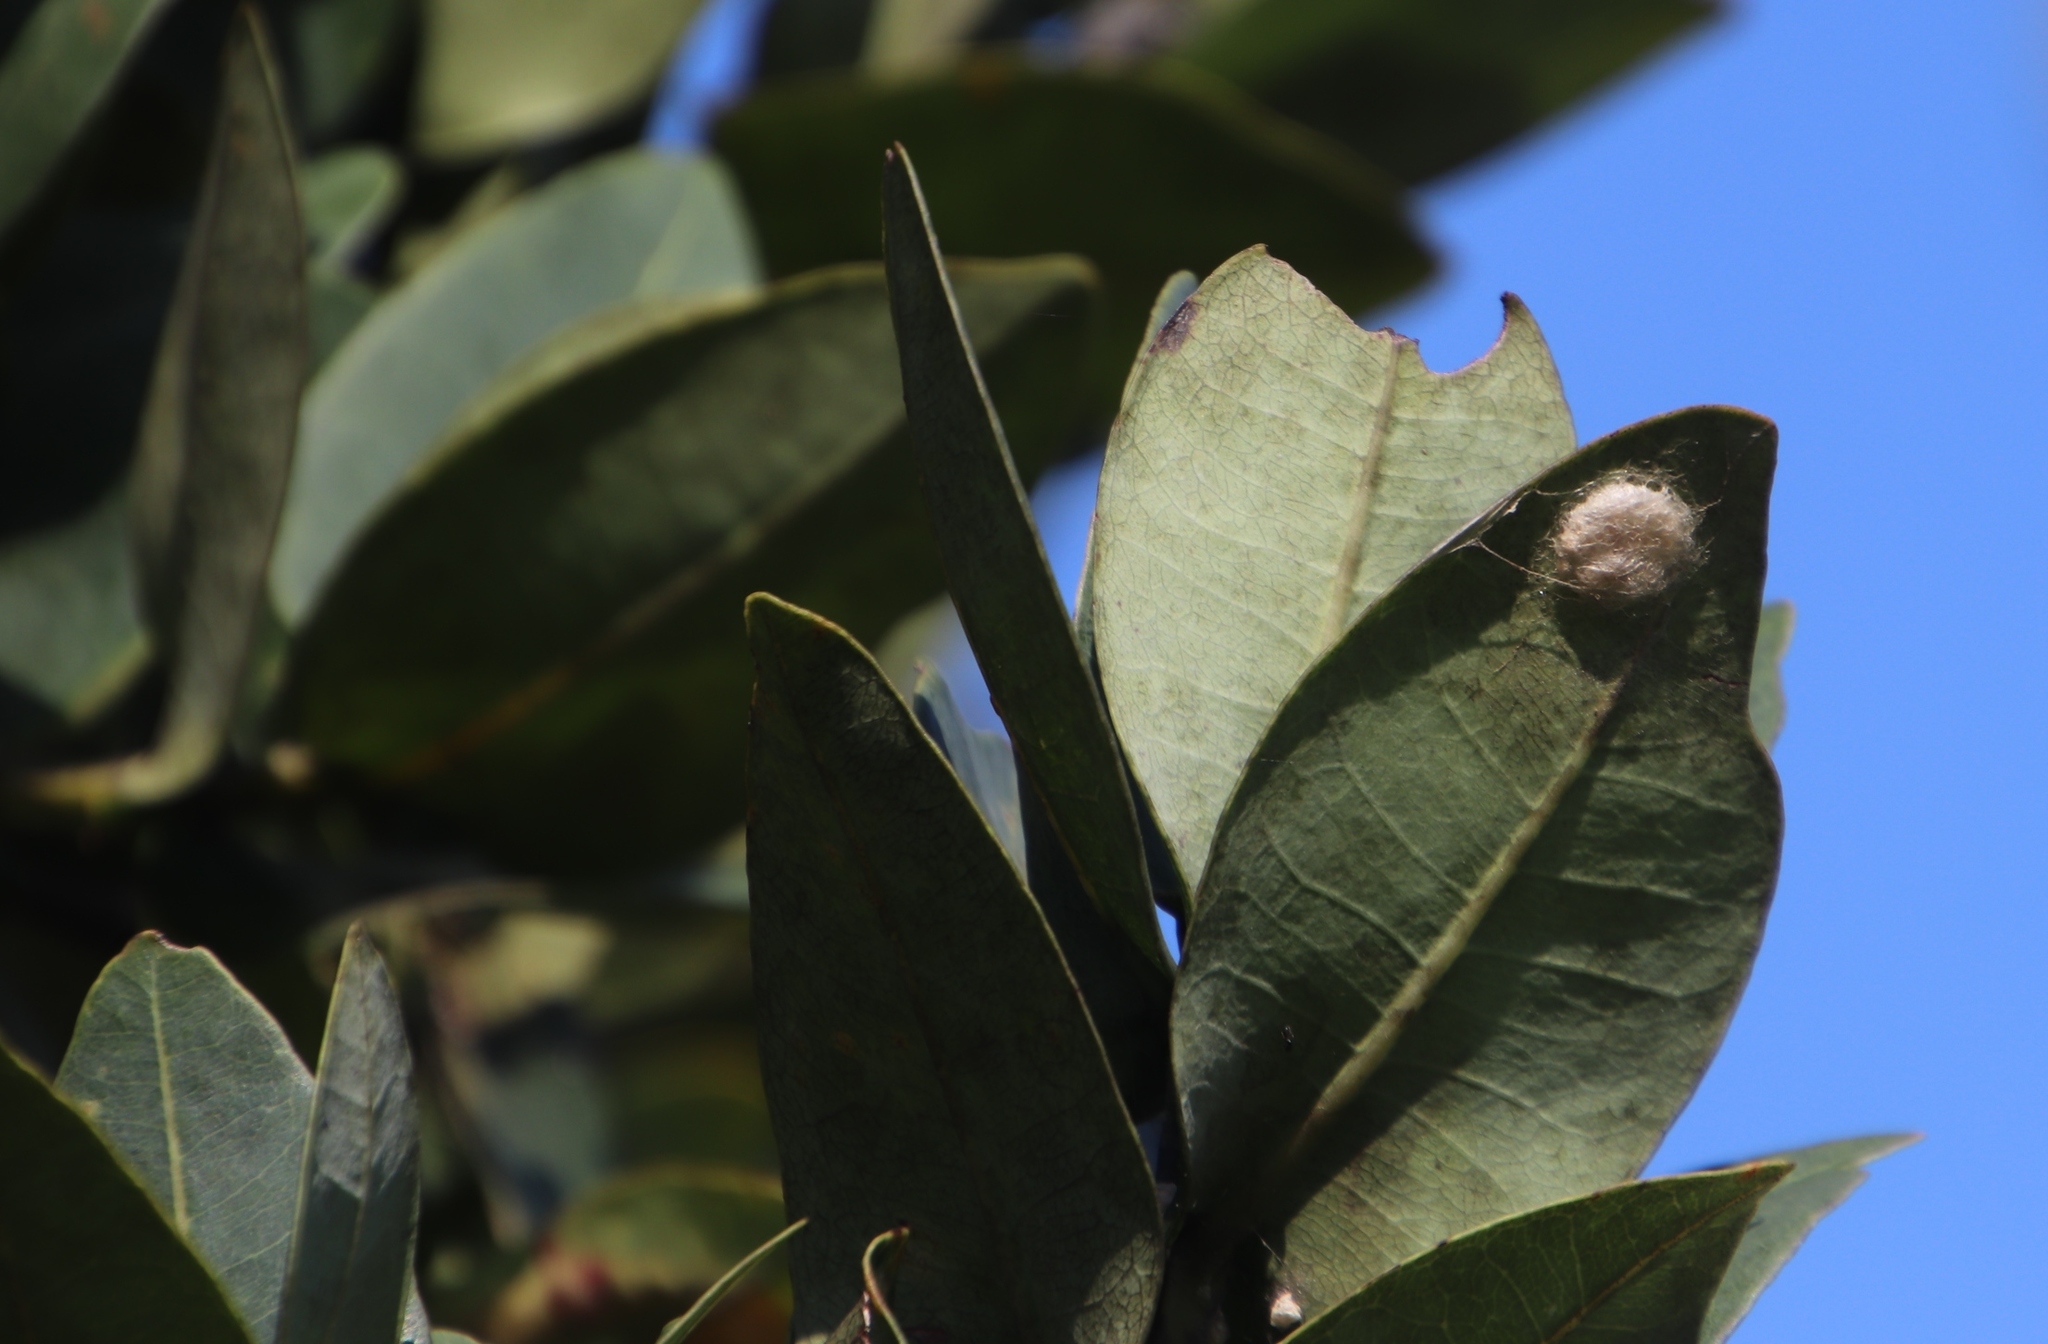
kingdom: Plantae
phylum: Tracheophyta
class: Magnoliopsida
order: Myrtales
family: Myrtaceae
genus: Syzygium
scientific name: Syzygium cordatum
